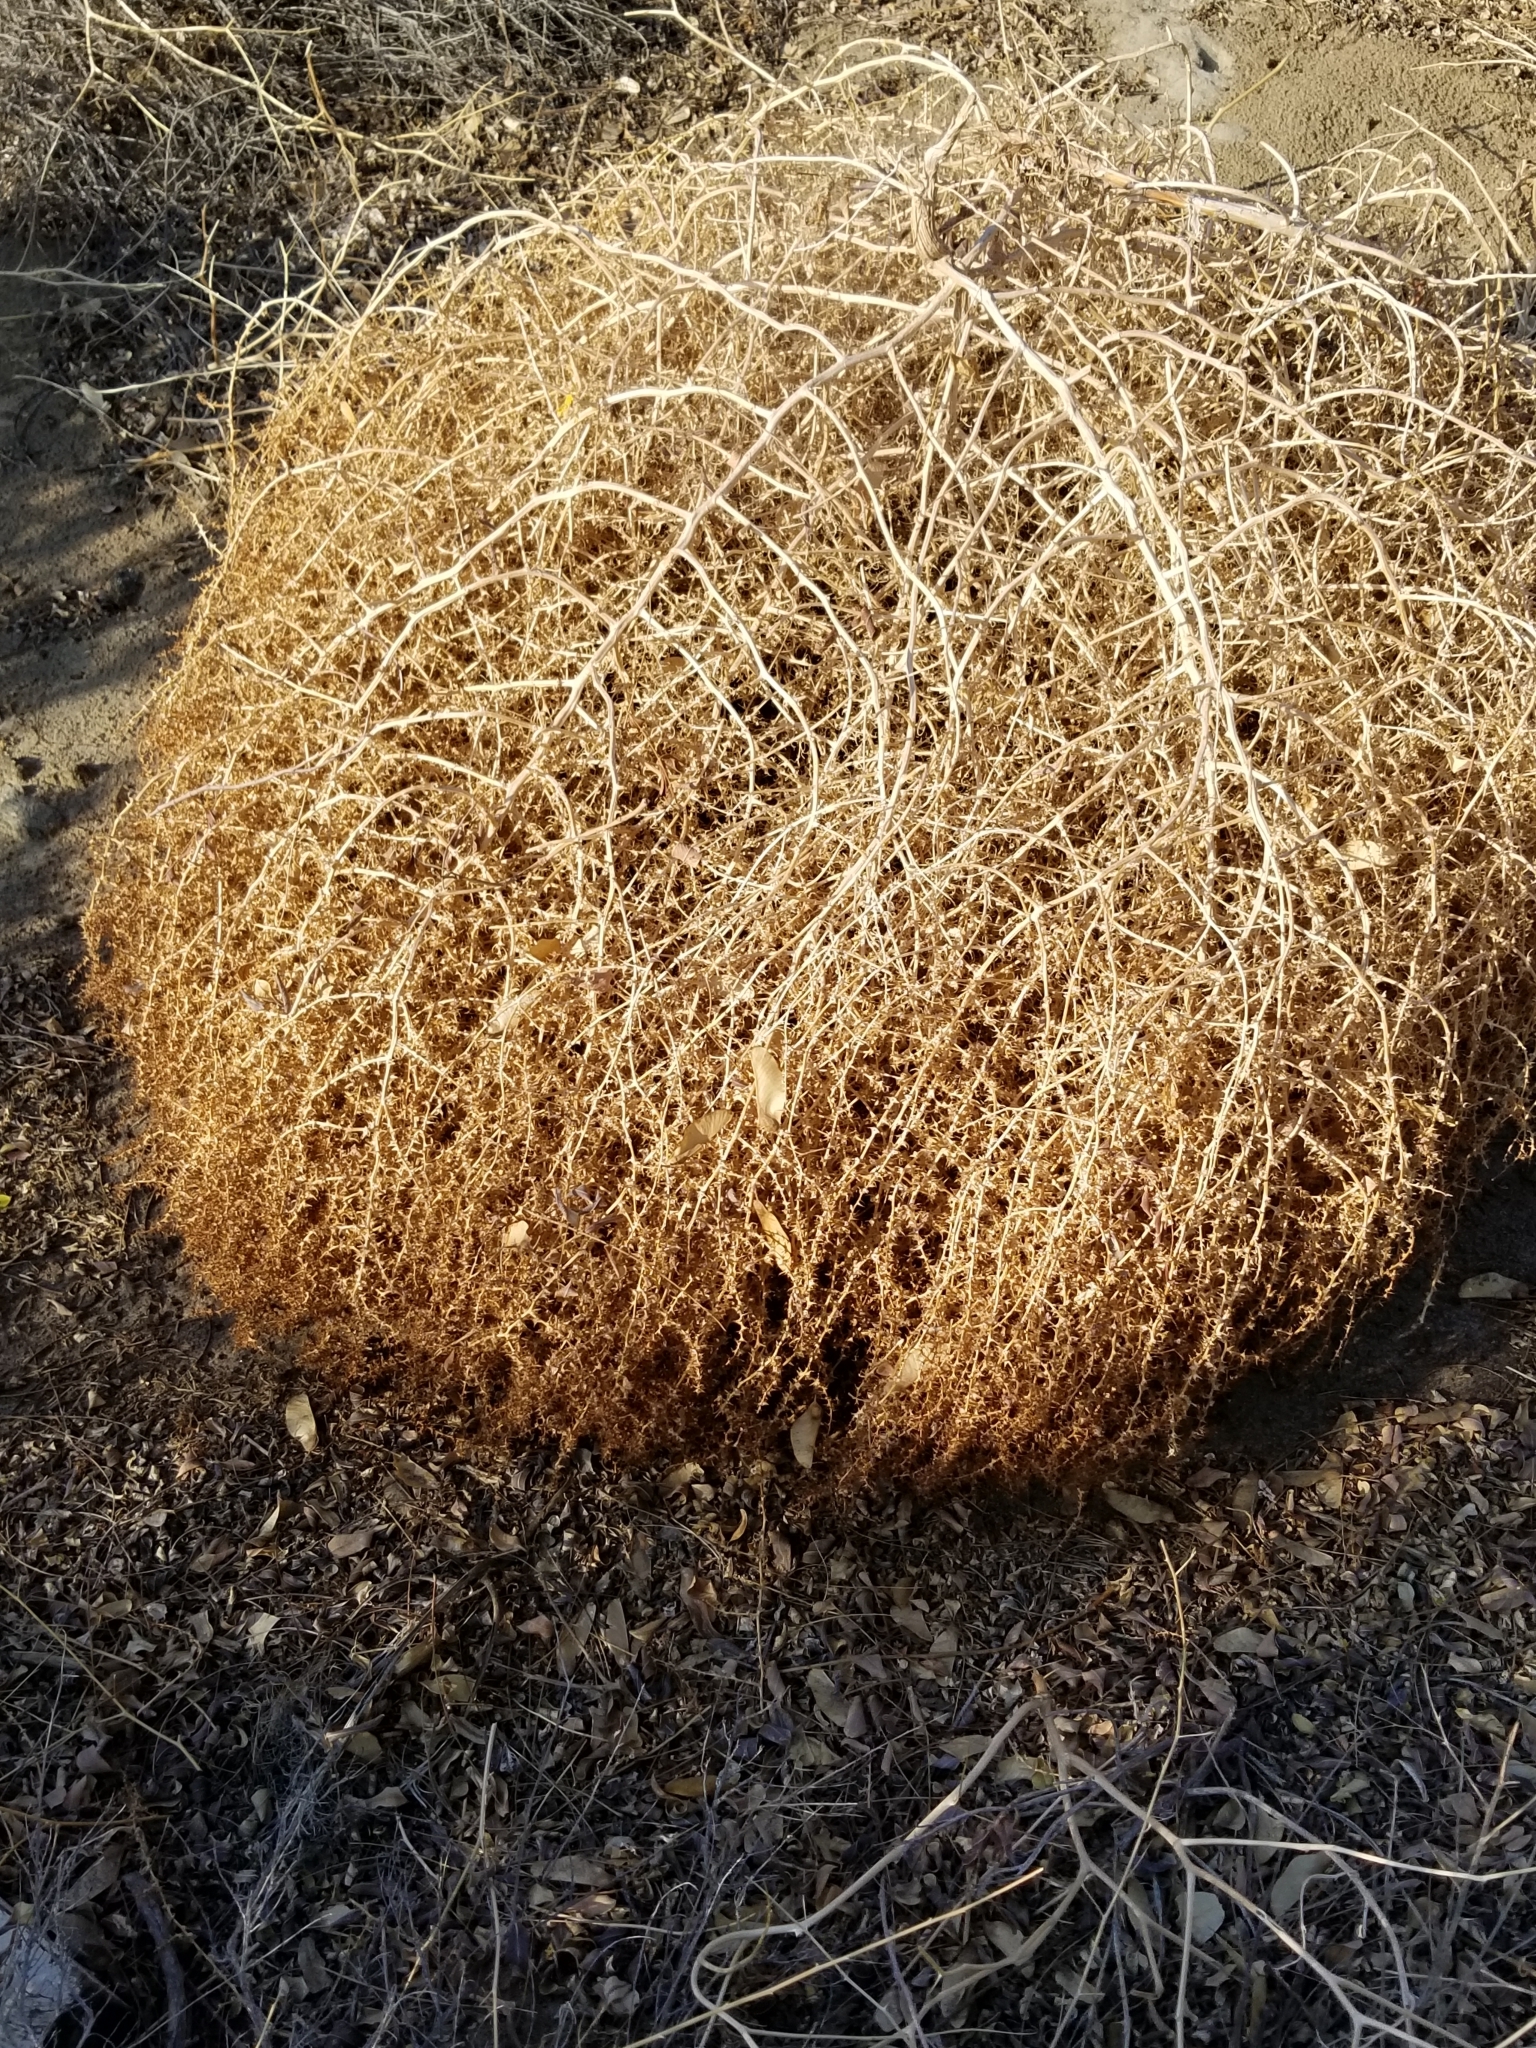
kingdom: Plantae
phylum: Tracheophyta
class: Magnoliopsida
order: Caryophyllales
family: Amaranthaceae
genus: Salsola
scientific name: Salsola tragus
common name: Prickly russian thistle
